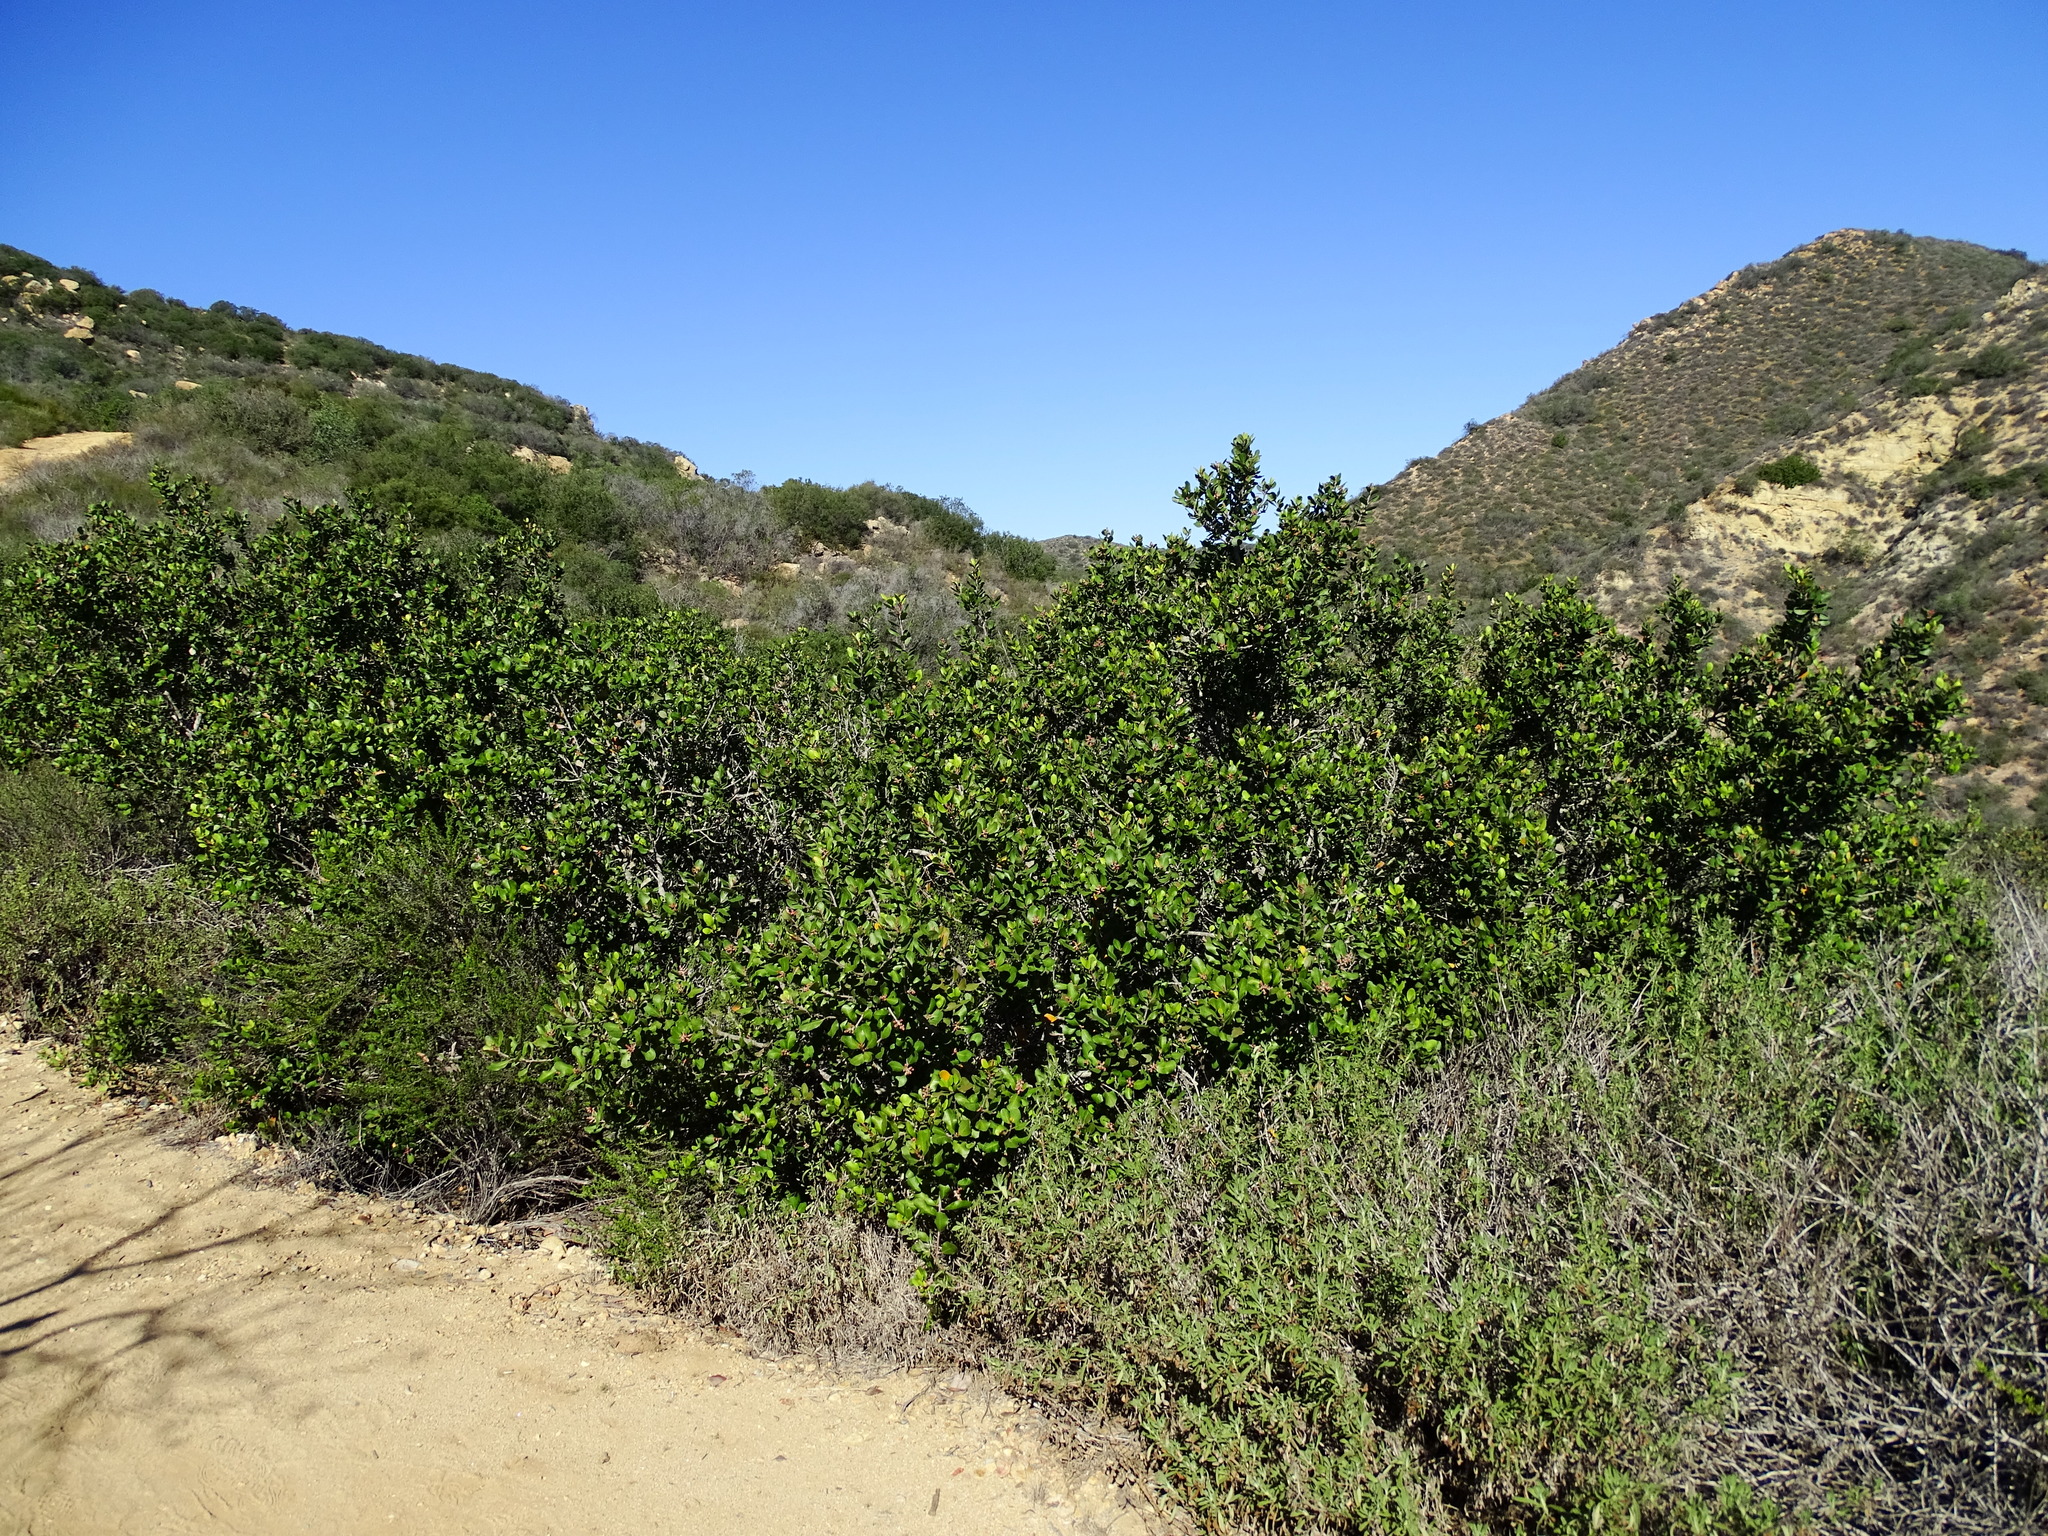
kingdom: Plantae
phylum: Tracheophyta
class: Magnoliopsida
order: Sapindales
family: Anacardiaceae
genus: Rhus
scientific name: Rhus integrifolia
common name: Lemonade sumac
